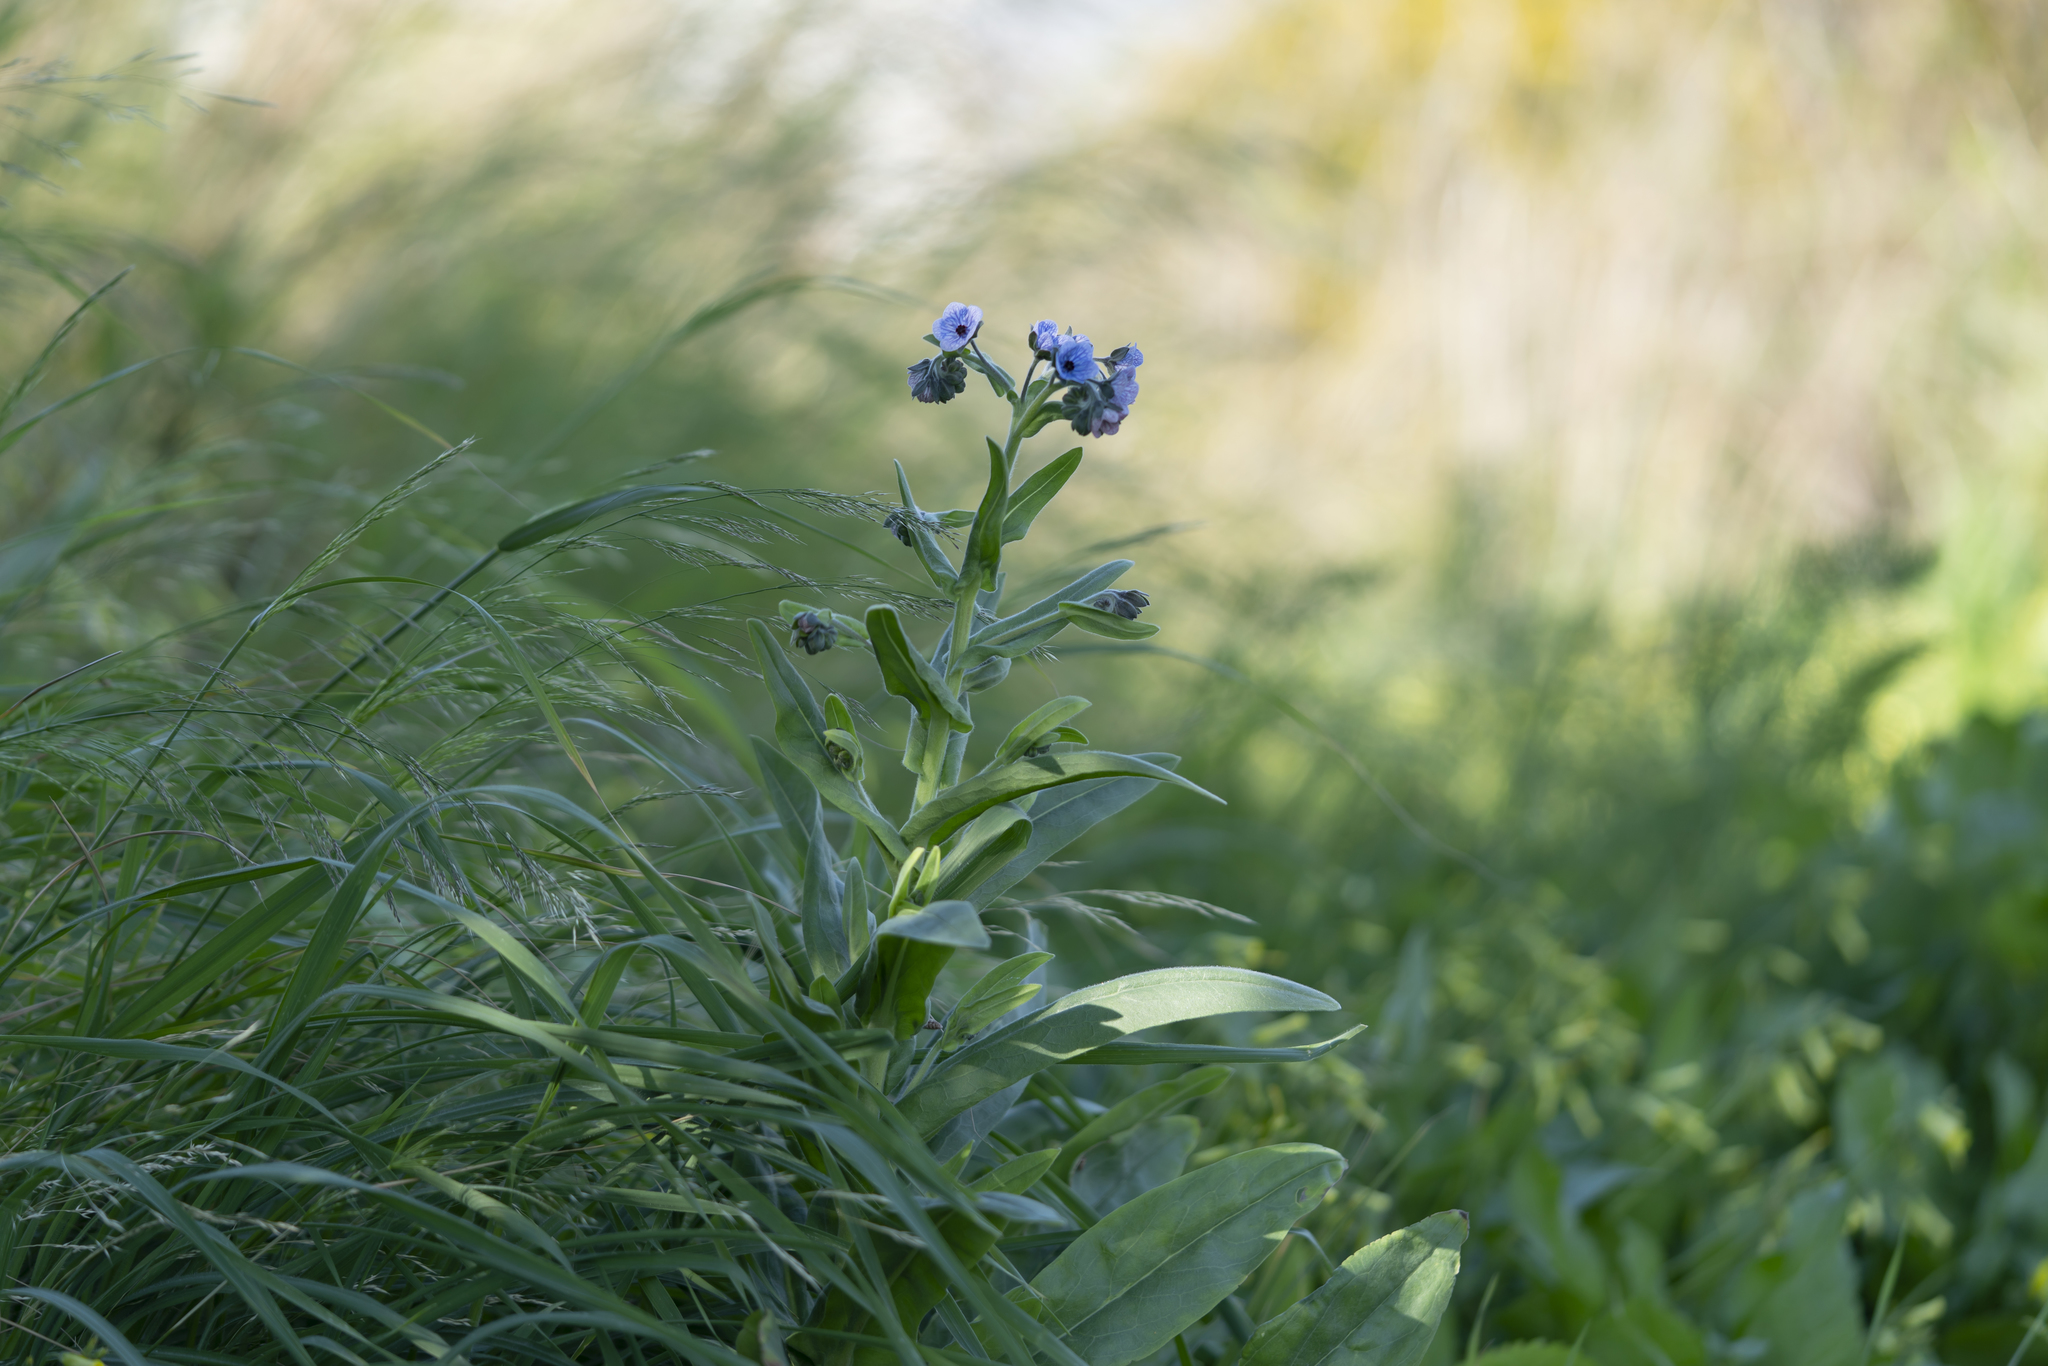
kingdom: Plantae
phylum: Tracheophyta
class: Magnoliopsida
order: Boraginales
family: Boraginaceae
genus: Cynoglossum
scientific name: Cynoglossum creticum
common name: Blue hound's tongue
